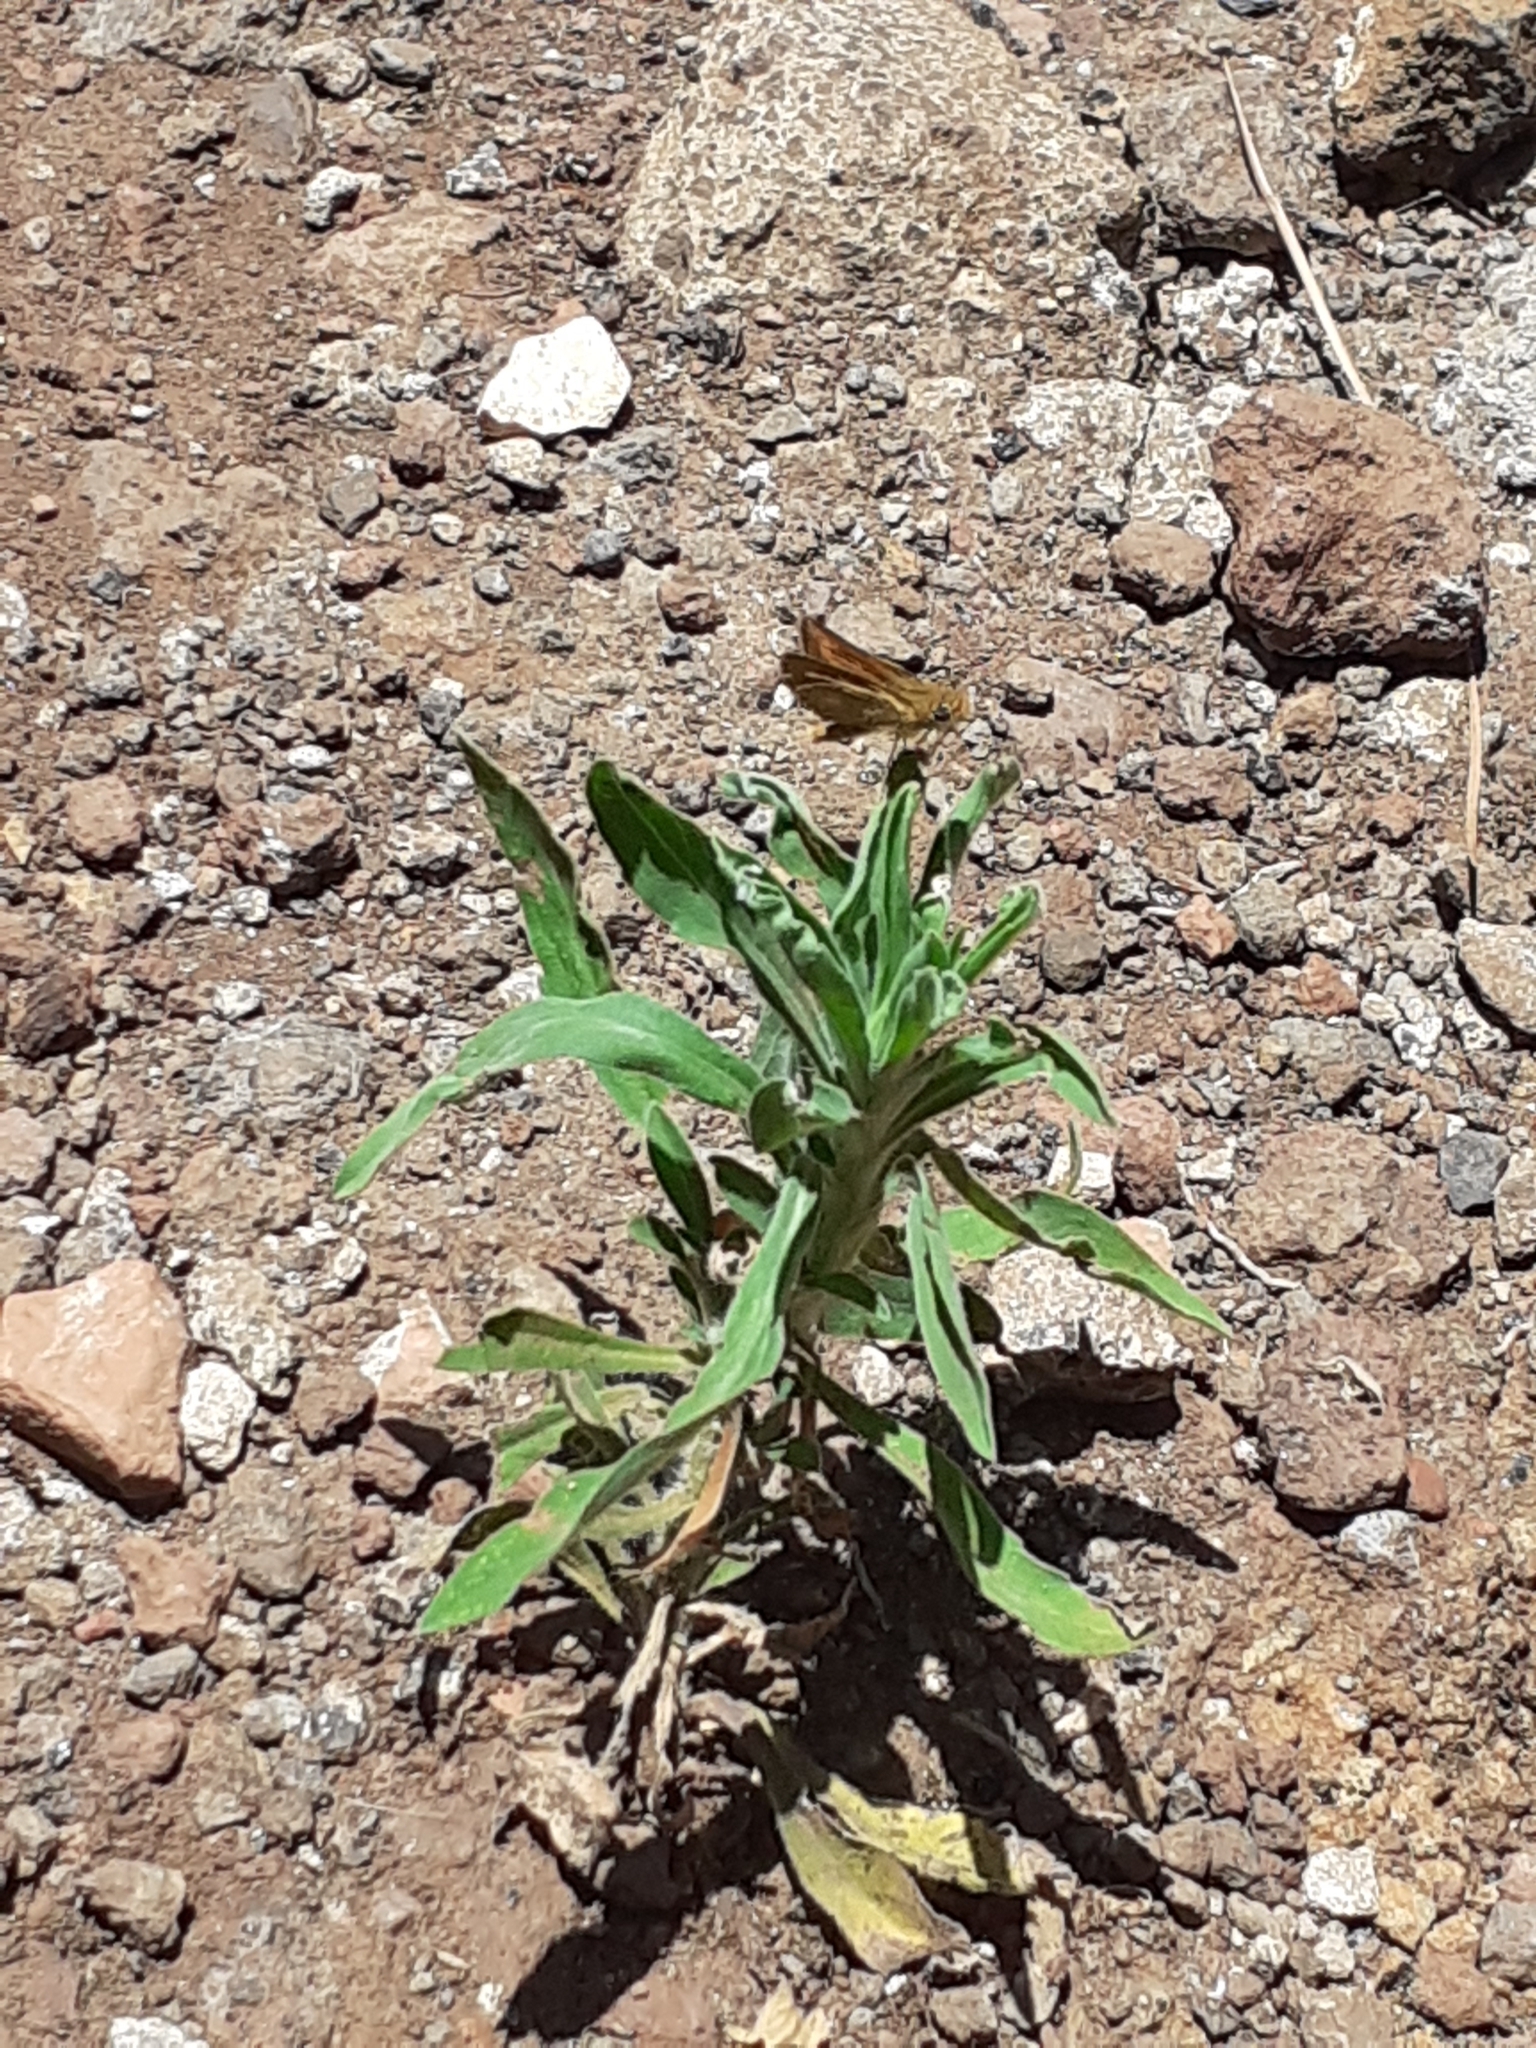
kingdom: Animalia
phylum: Arthropoda
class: Insecta
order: Lepidoptera
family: Hesperiidae
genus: Thymelicus
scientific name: Thymelicus acteon
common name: Lulworth skipper
